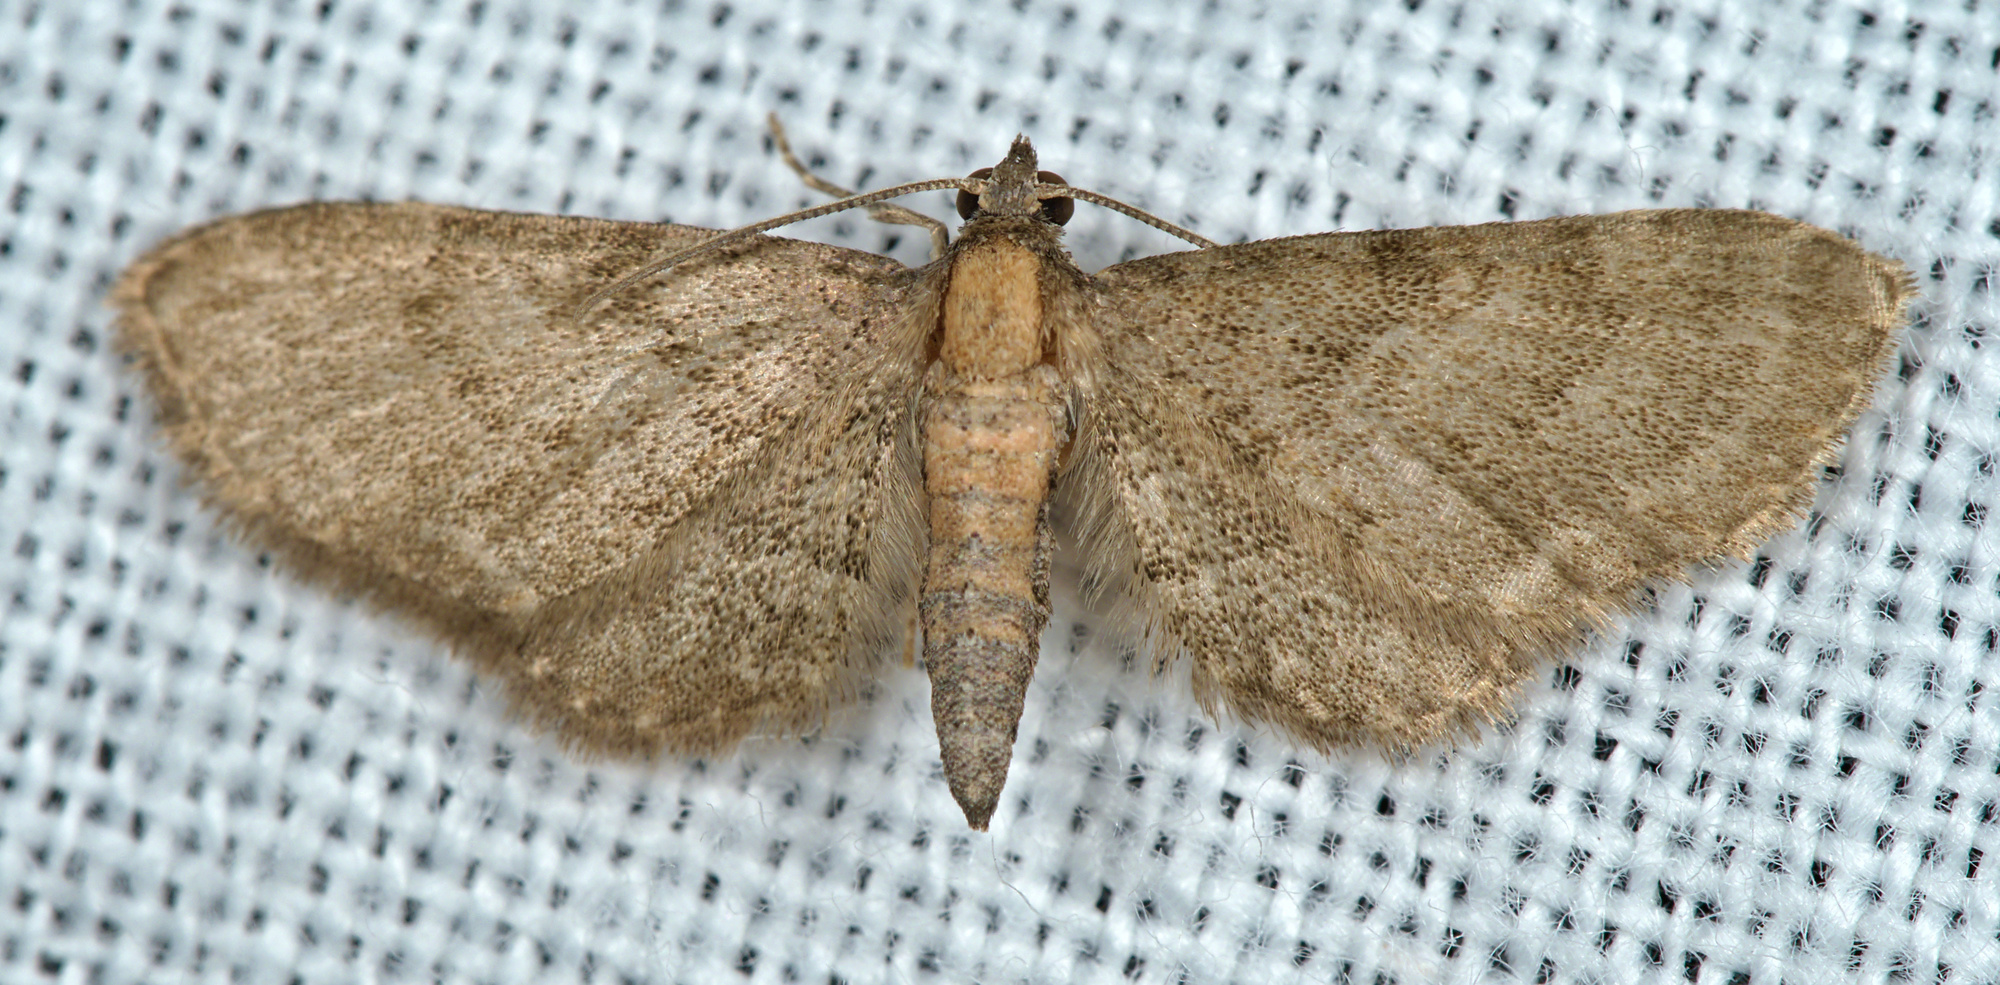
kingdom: Animalia
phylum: Arthropoda
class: Insecta
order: Lepidoptera
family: Geometridae
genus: Eupithecia
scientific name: Eupithecia haworthiata
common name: Haworth's pug
